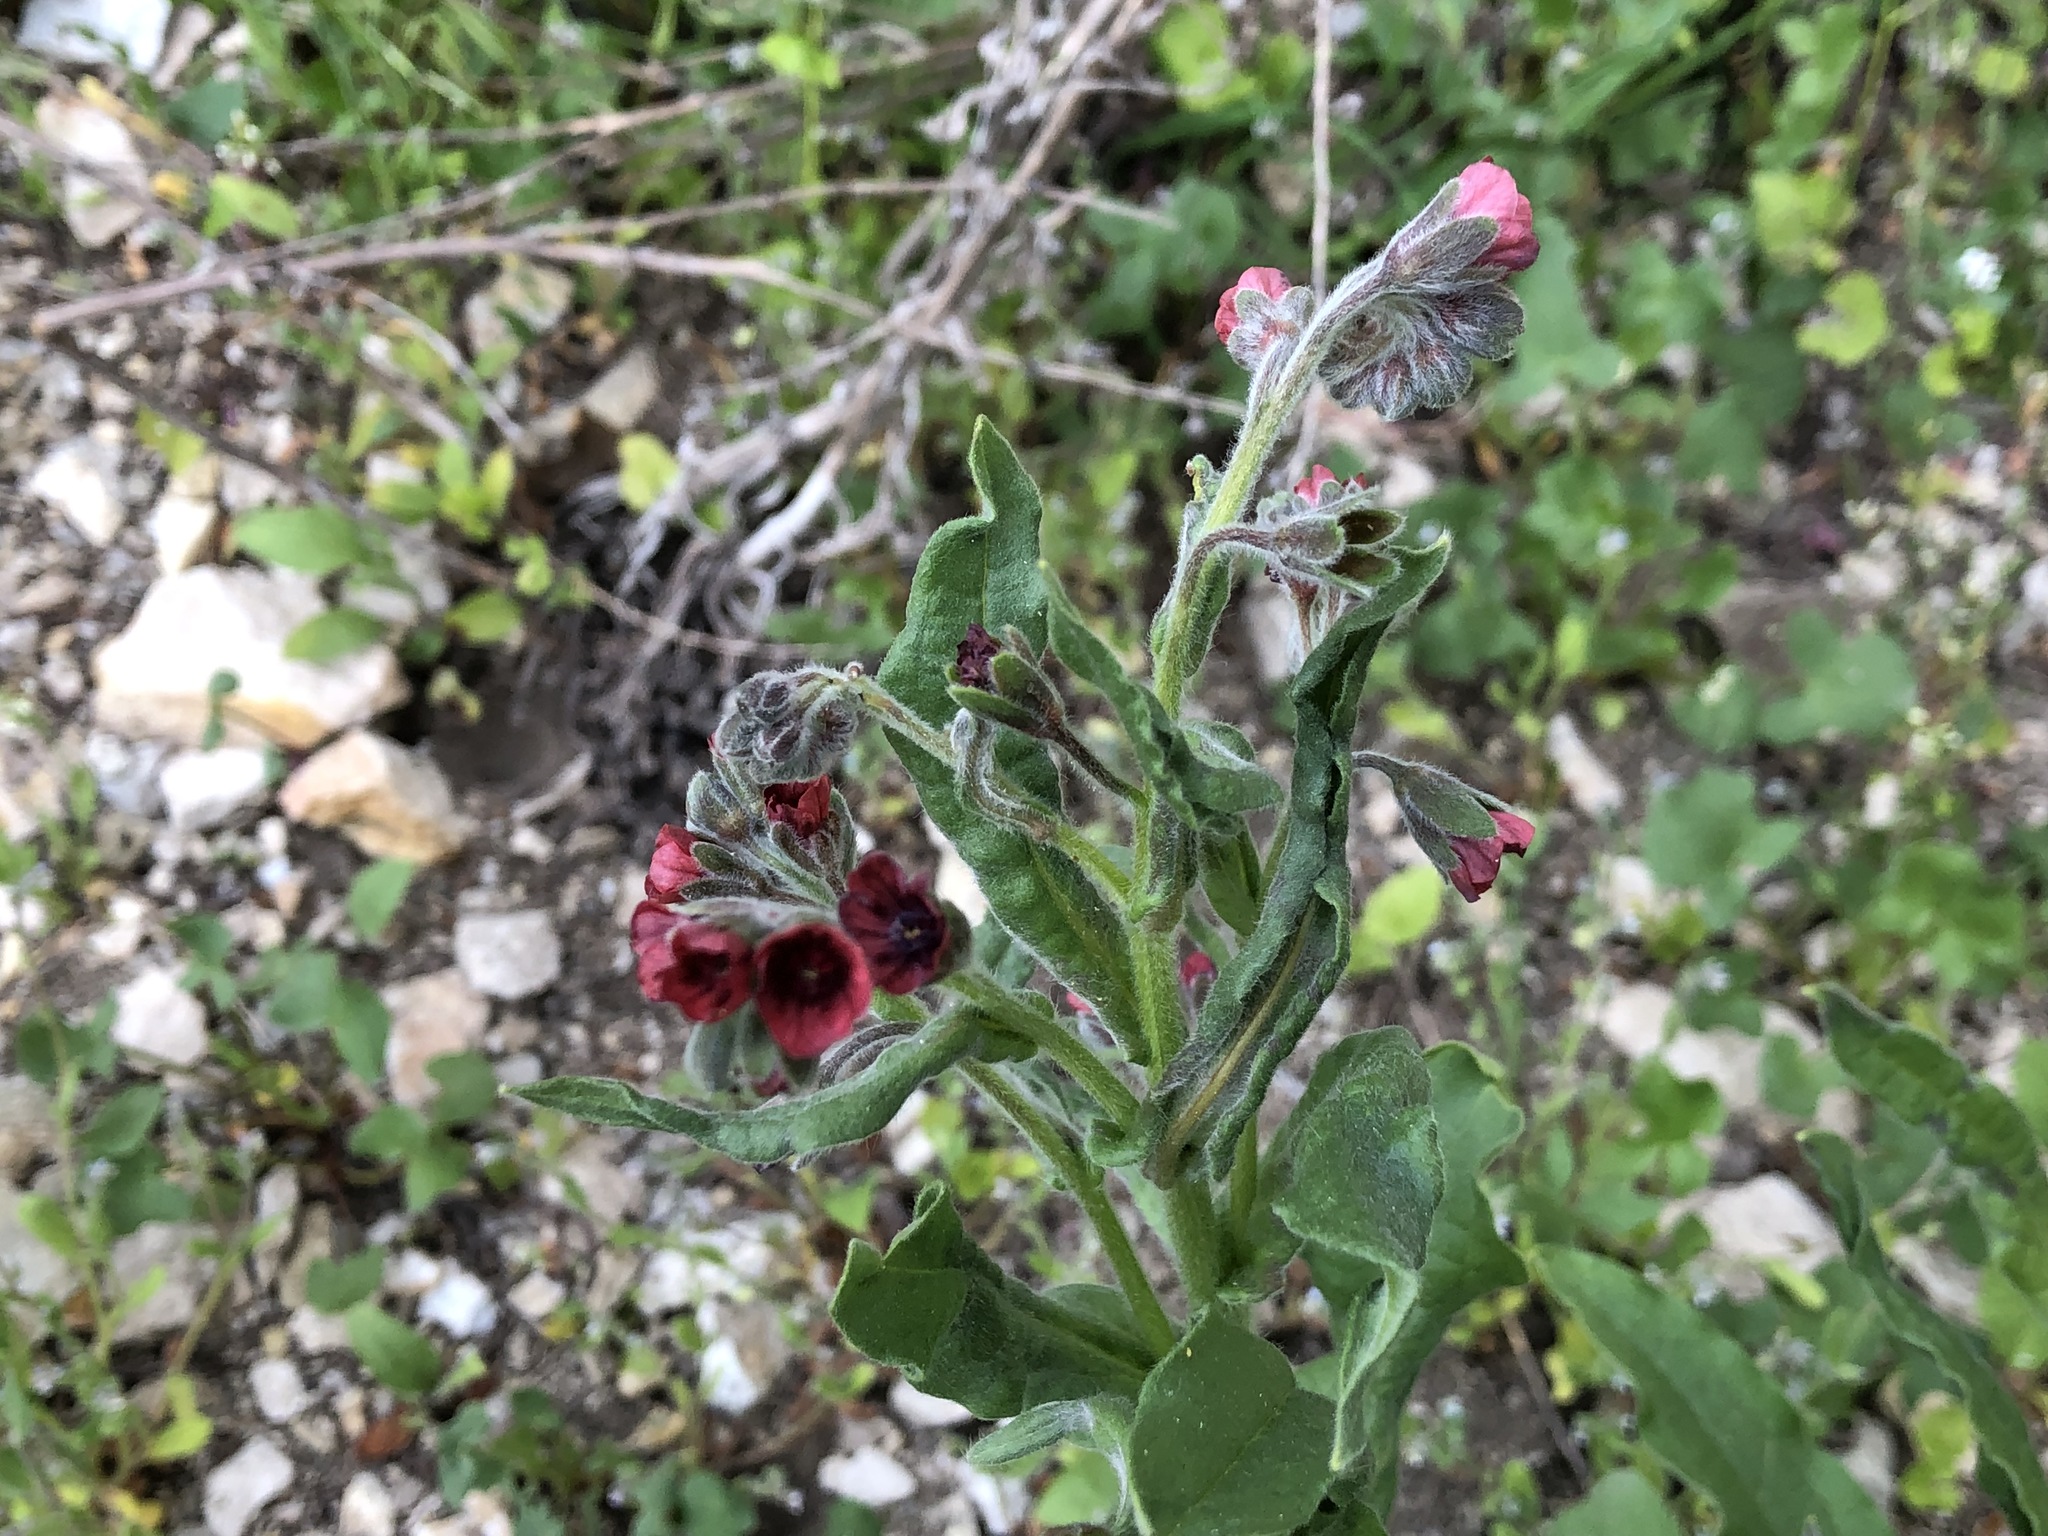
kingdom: Plantae
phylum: Tracheophyta
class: Magnoliopsida
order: Boraginales
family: Boraginaceae
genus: Cynoglossum
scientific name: Cynoglossum officinale
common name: Hound's-tongue
